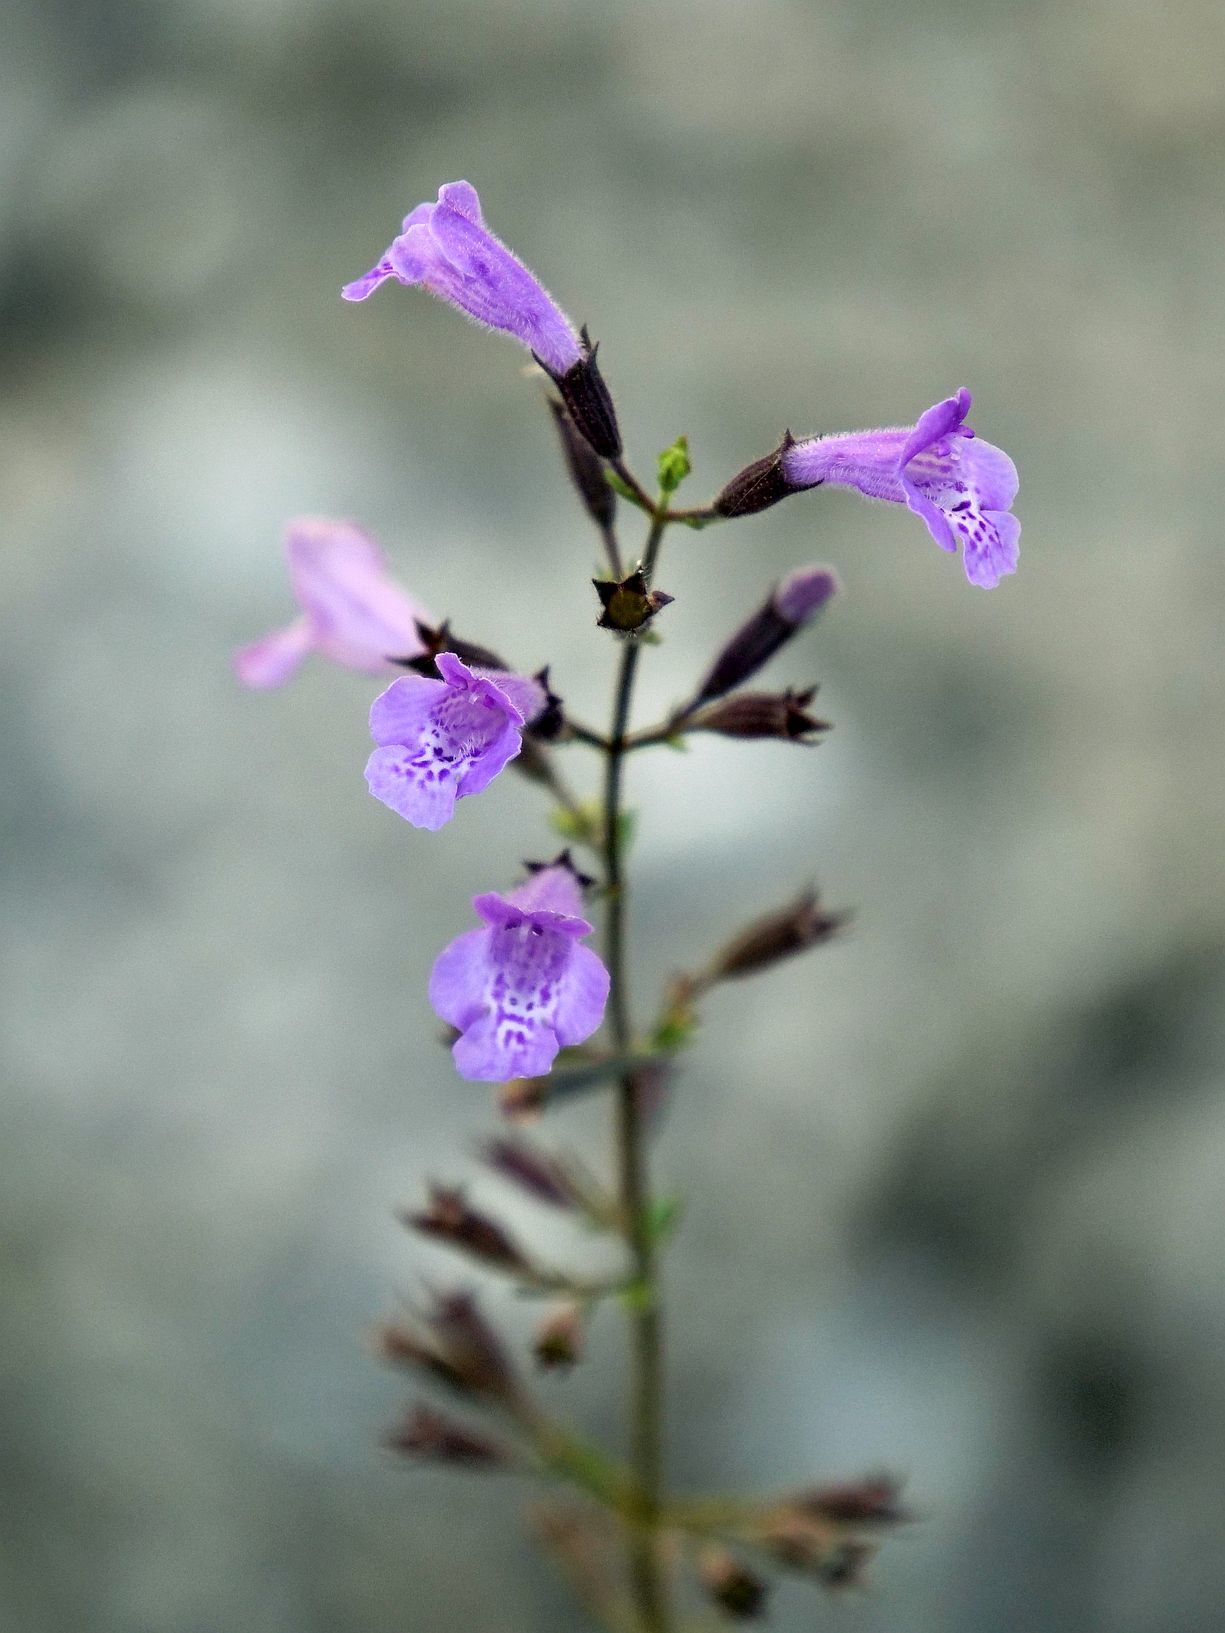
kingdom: Plantae
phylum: Tracheophyta
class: Magnoliopsida
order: Lamiales
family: Lamiaceae
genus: Clinopodium
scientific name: Clinopodium menthifolium
